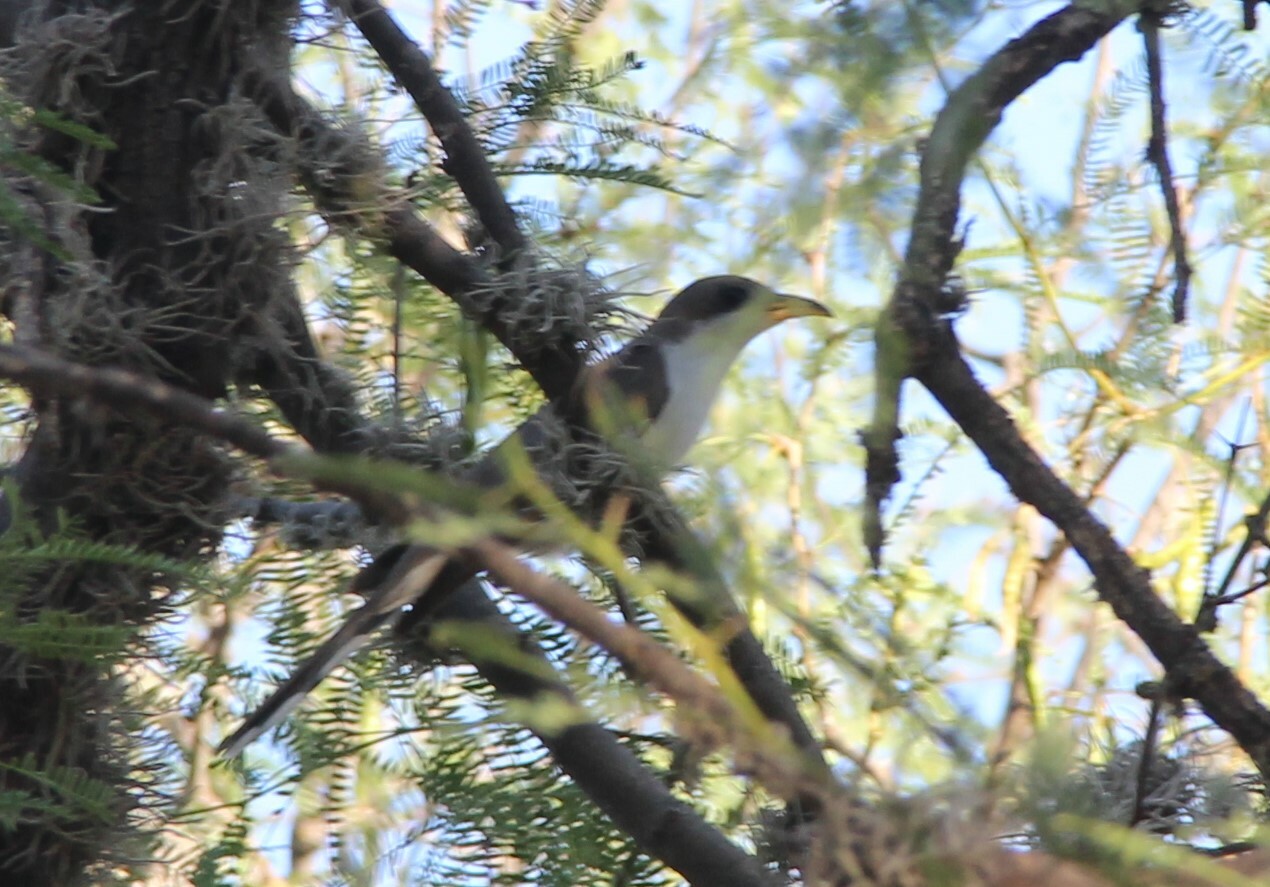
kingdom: Animalia
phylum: Chordata
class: Aves
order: Cuculiformes
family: Cuculidae
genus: Coccyzus
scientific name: Coccyzus americanus
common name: Yellow-billed cuckoo
